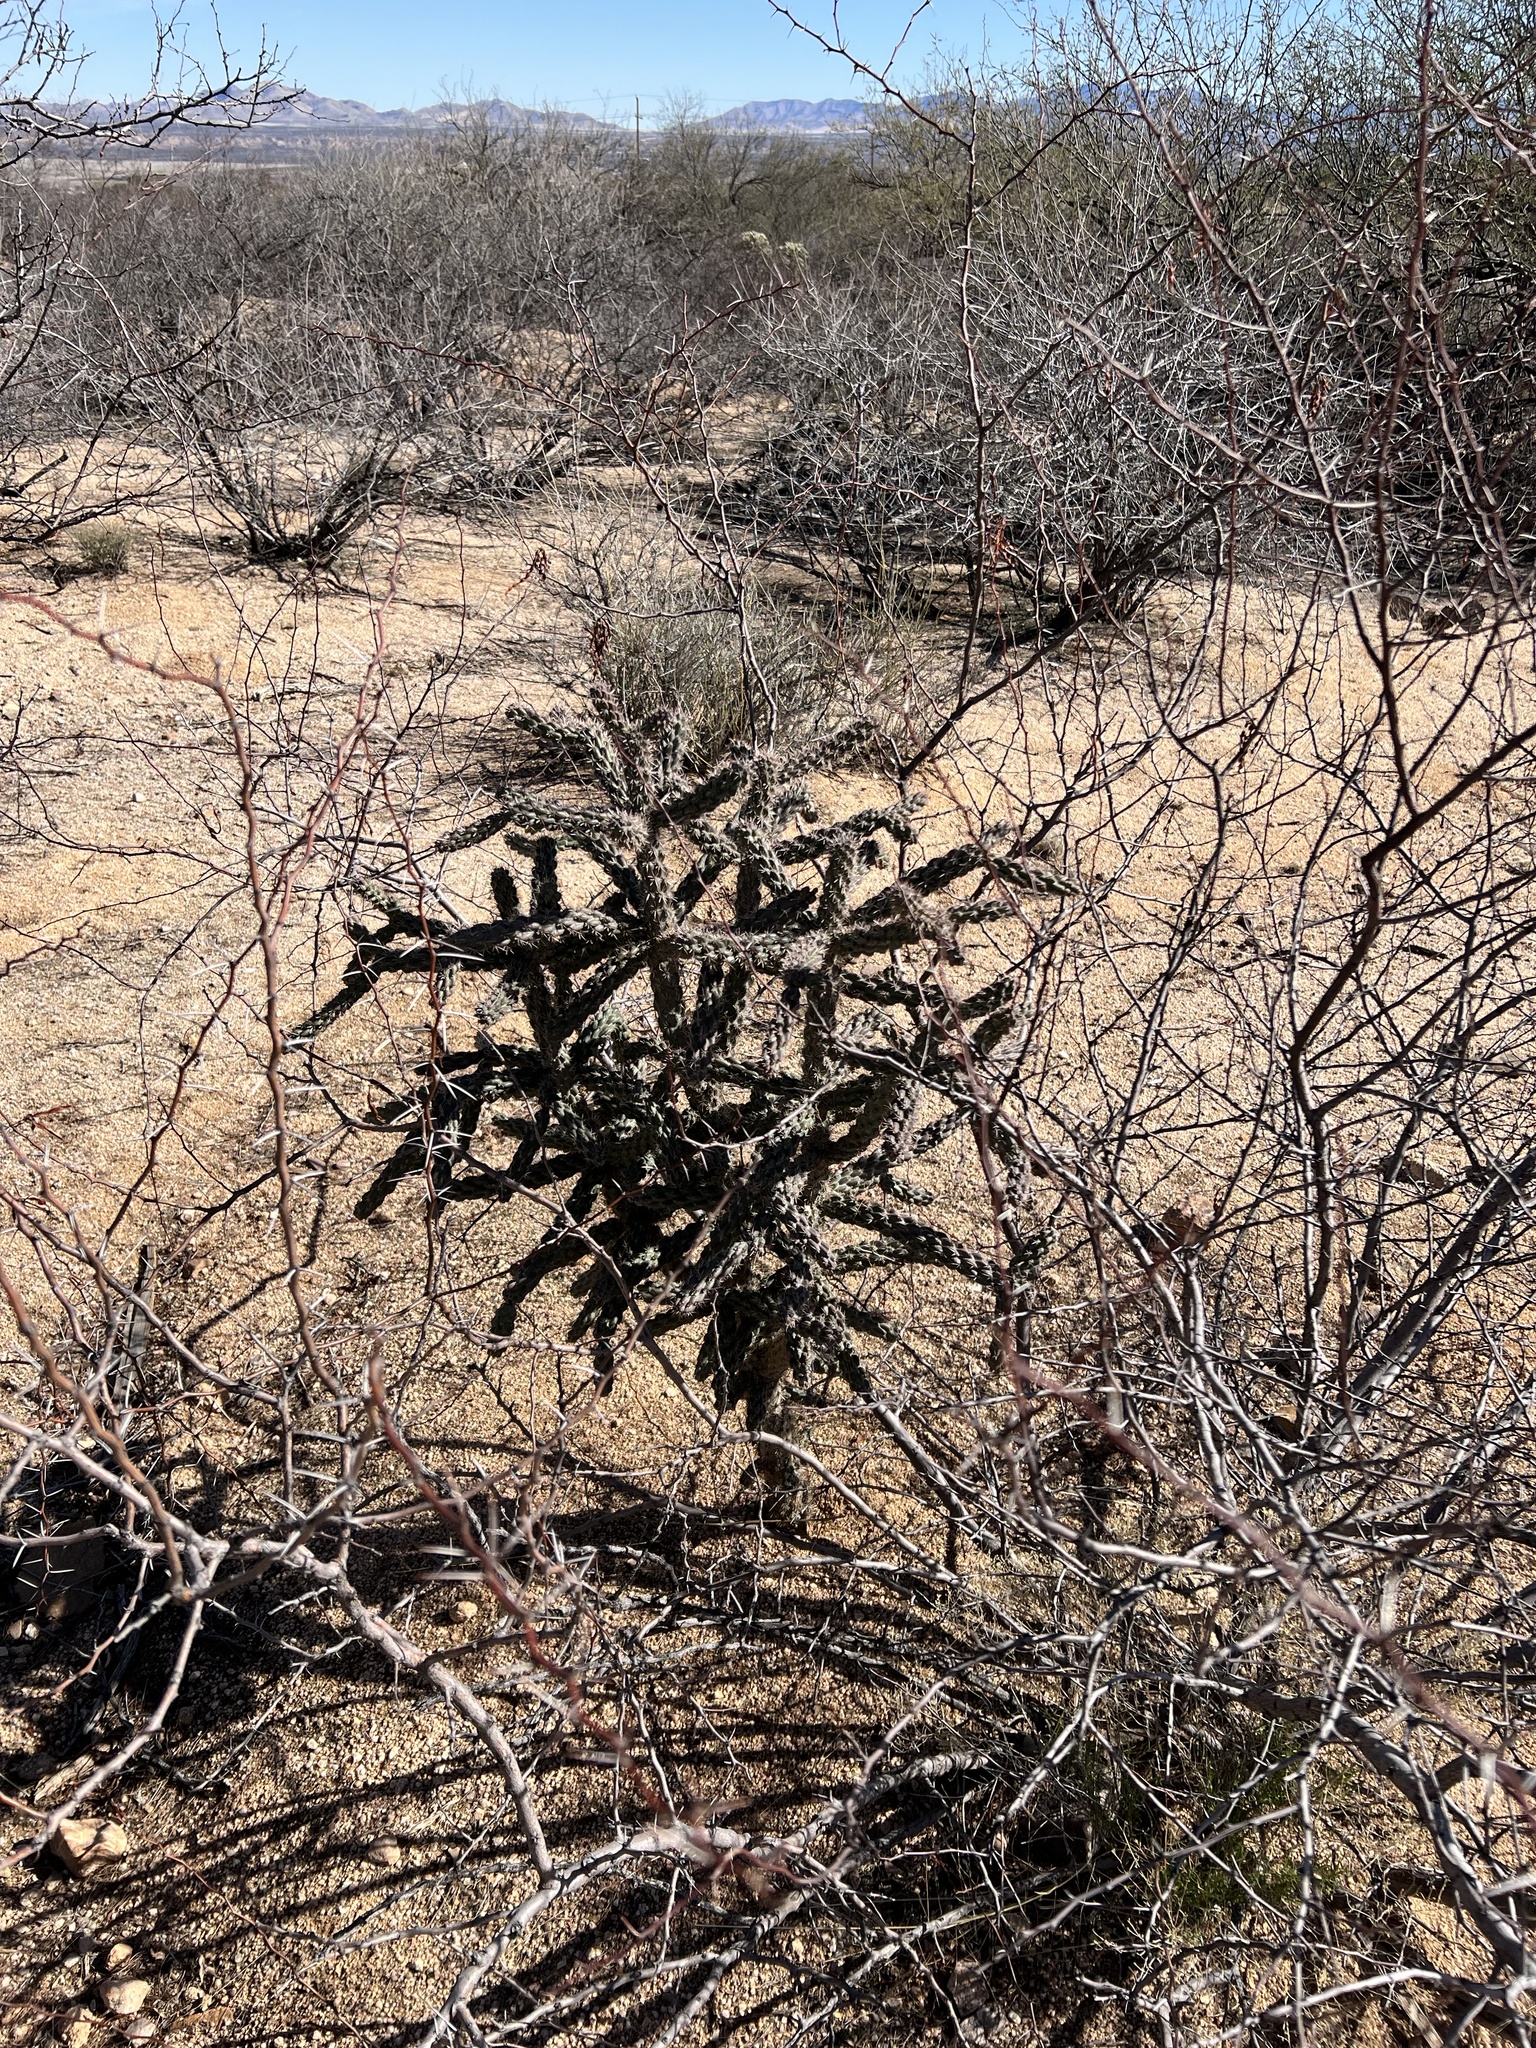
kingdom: Plantae
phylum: Tracheophyta
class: Magnoliopsida
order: Caryophyllales
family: Cactaceae
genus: Cylindropuntia
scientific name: Cylindropuntia imbricata
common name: Candelabrum cactus
